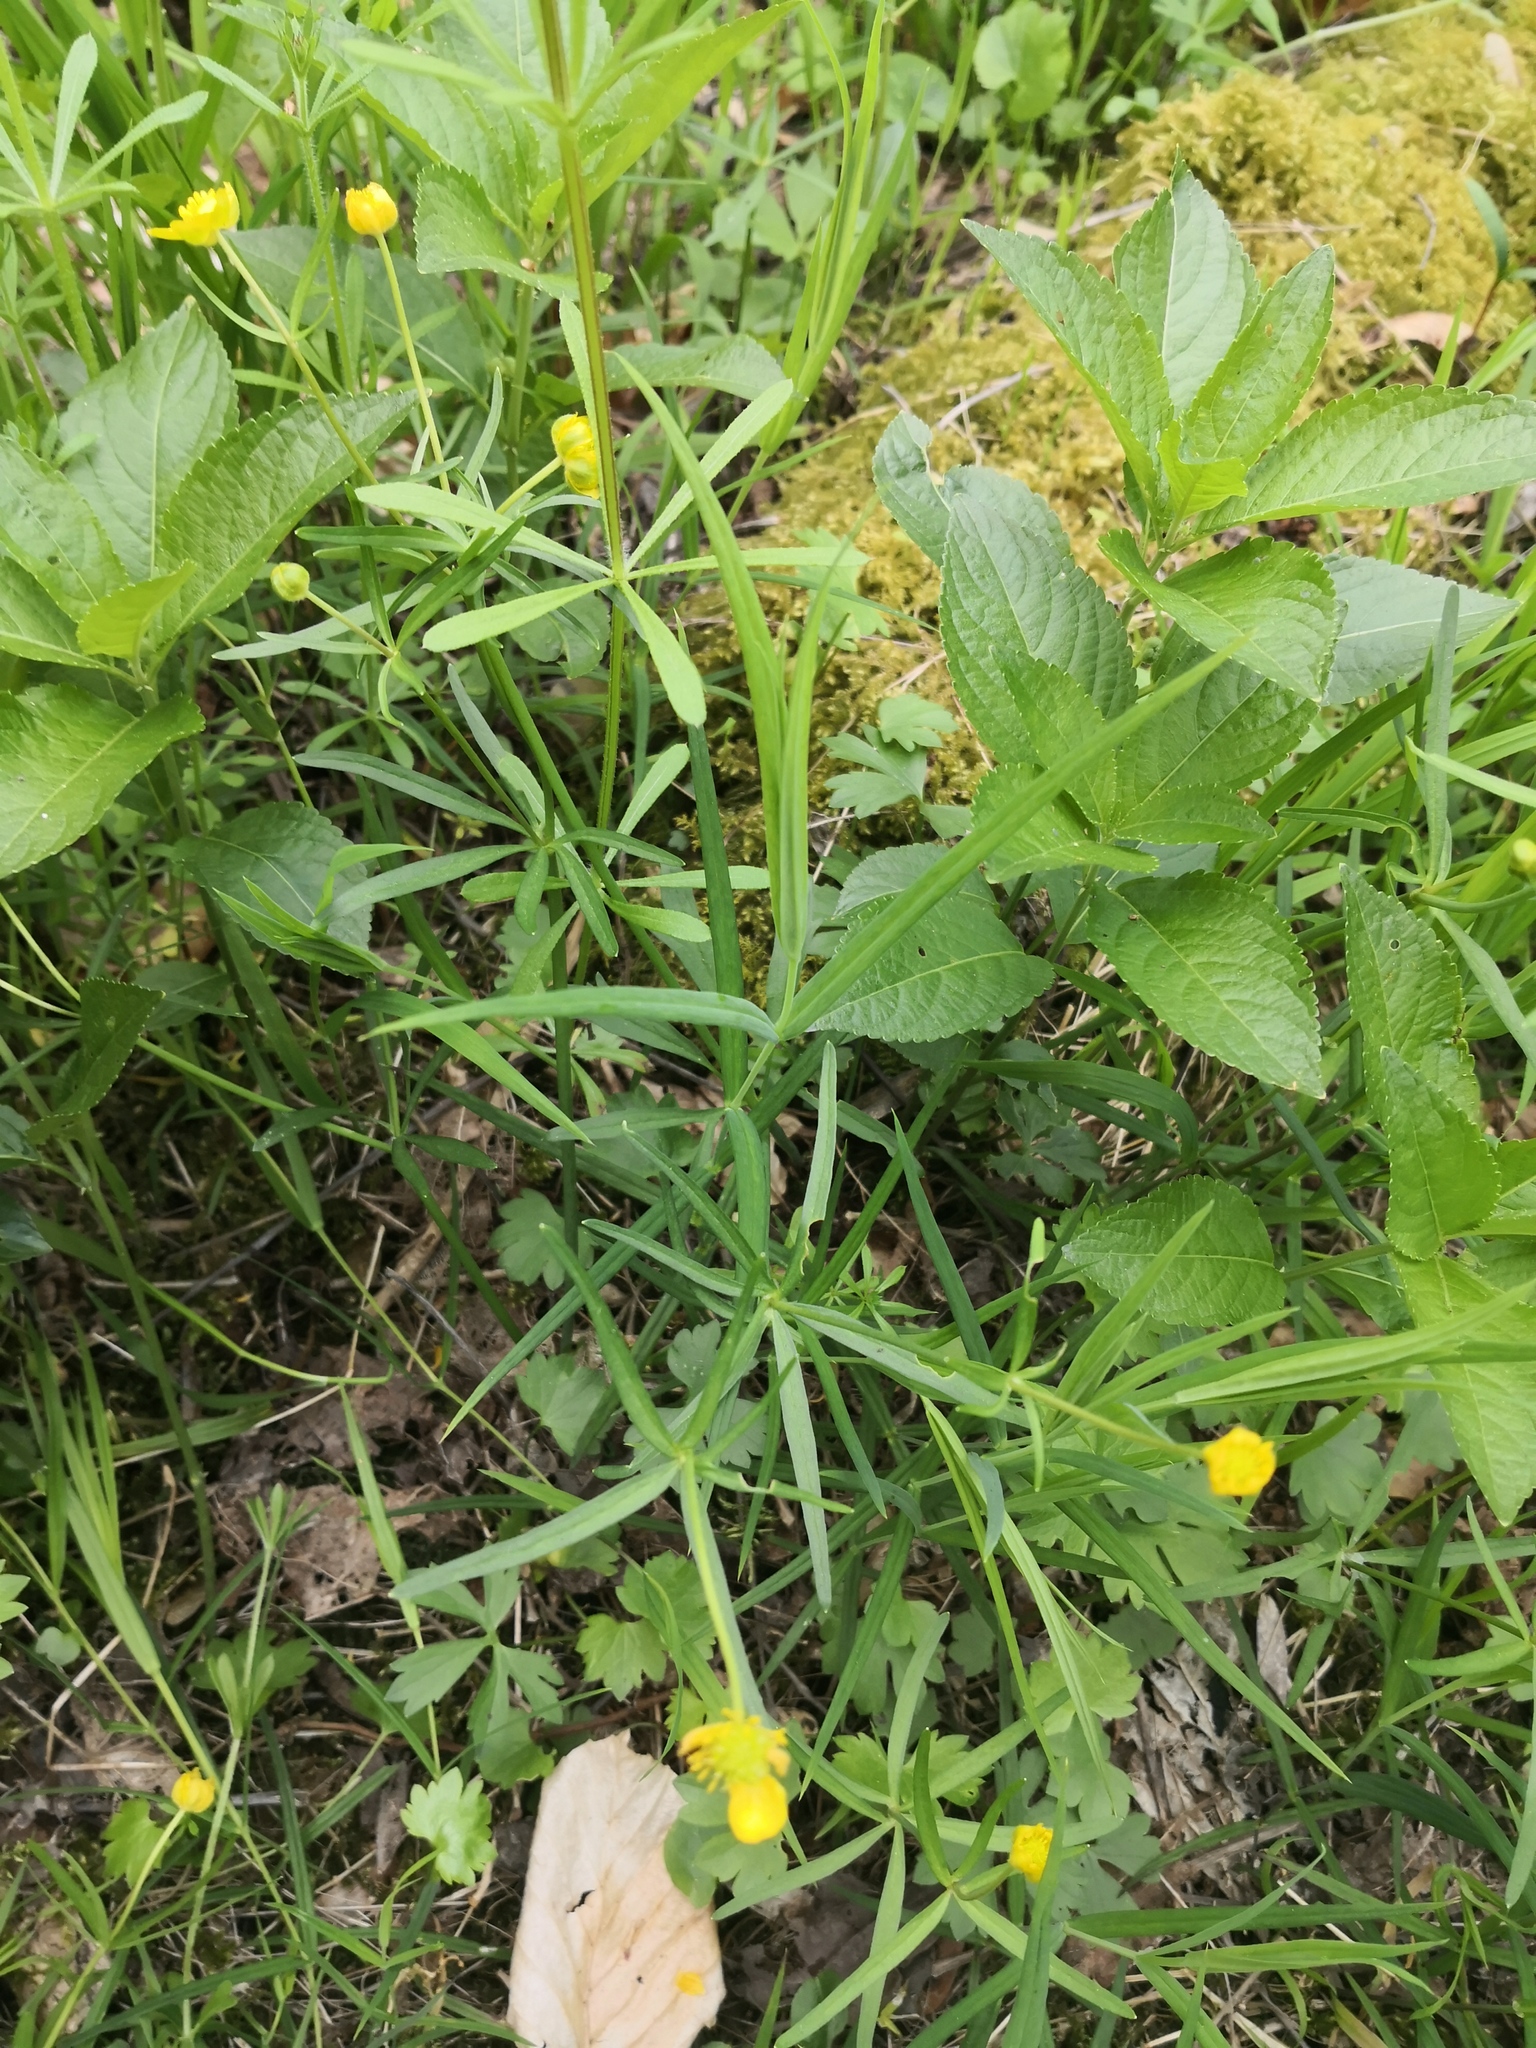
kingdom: Plantae
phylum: Tracheophyta
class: Magnoliopsida
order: Ranunculales
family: Ranunculaceae
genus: Ranunculus
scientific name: Ranunculus auricomus
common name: Goldilocks buttercup
